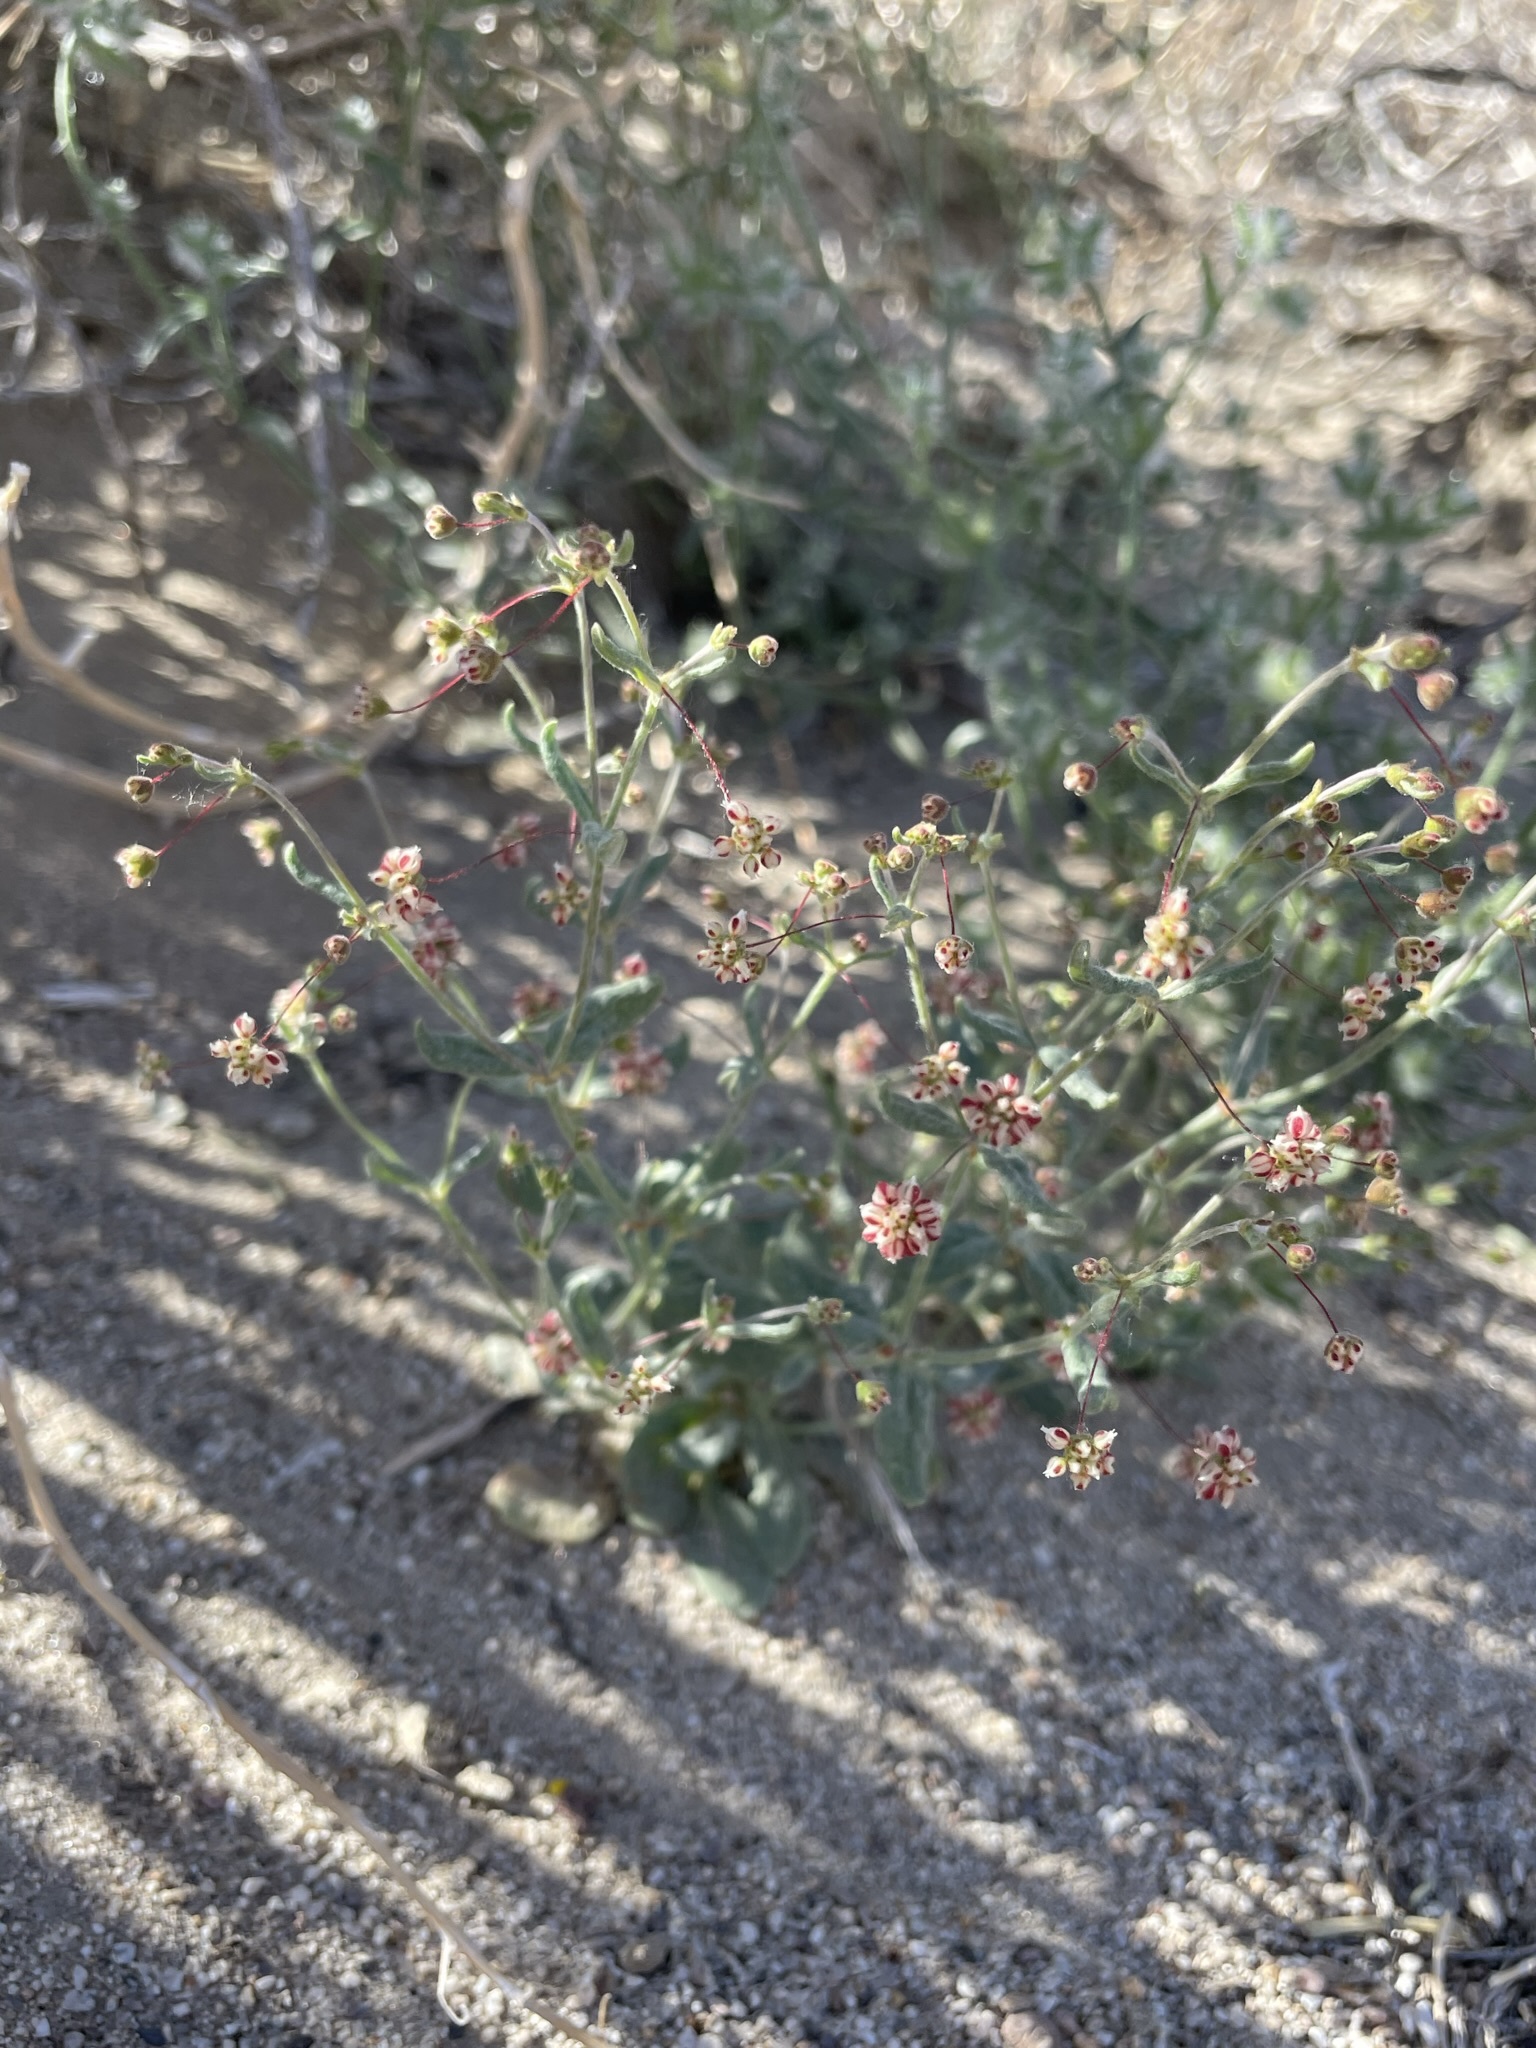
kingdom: Plantae
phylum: Tracheophyta
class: Magnoliopsida
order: Caryophyllales
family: Polygonaceae
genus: Eriogonum
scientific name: Eriogonum maculatum
